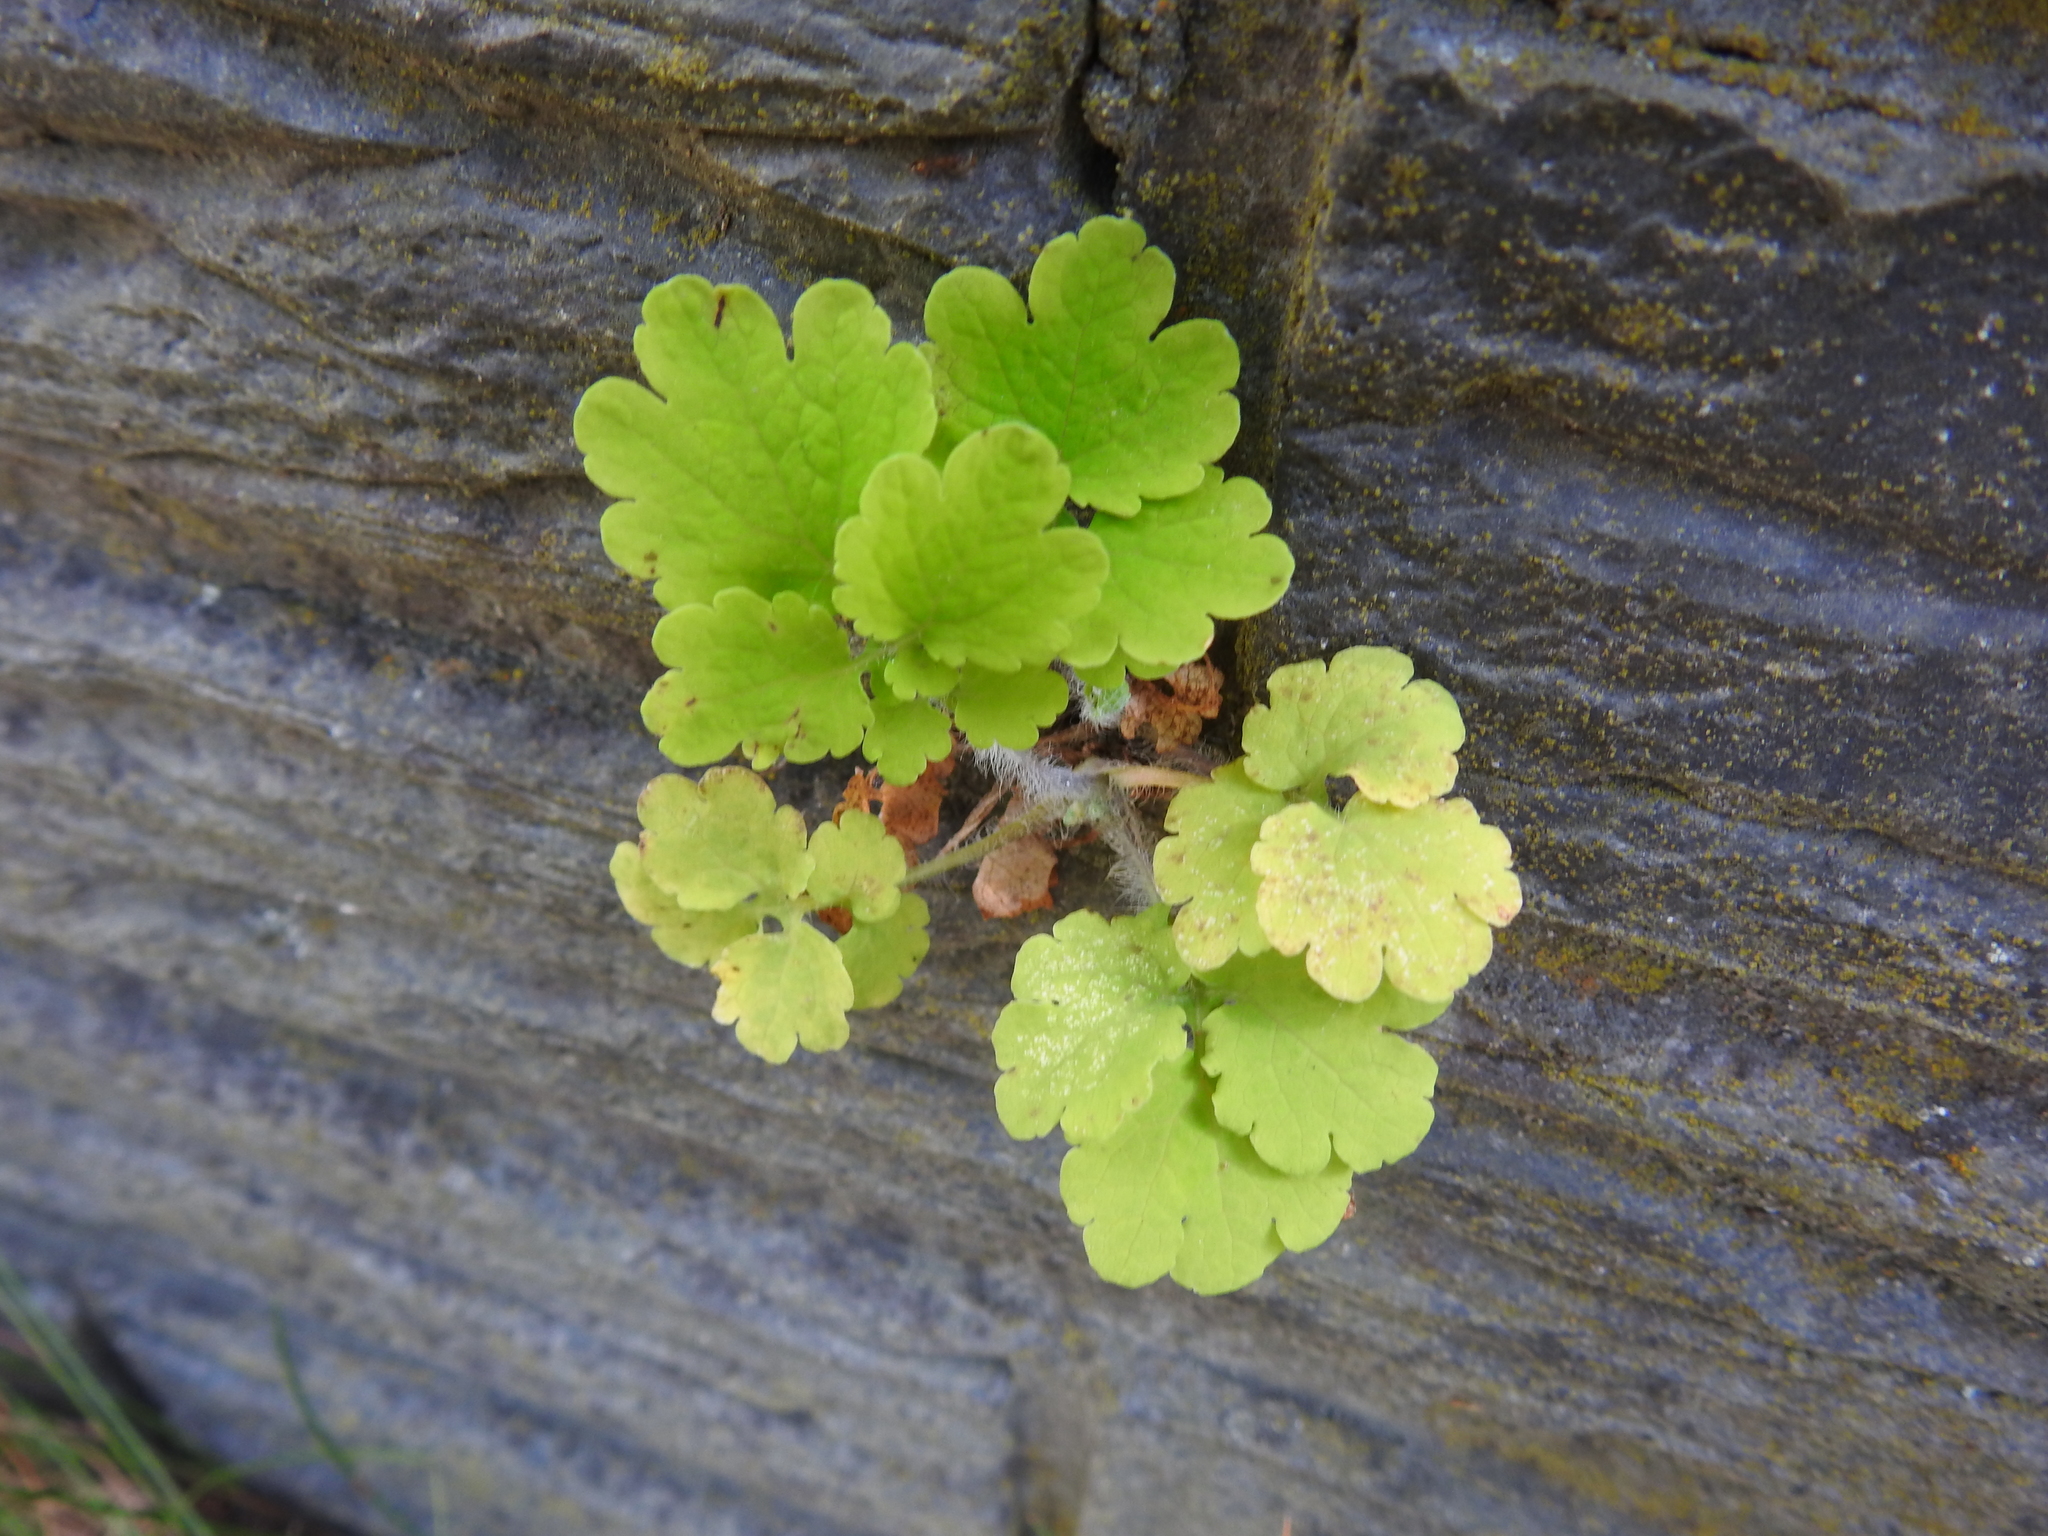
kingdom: Plantae
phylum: Tracheophyta
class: Magnoliopsida
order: Ranunculales
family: Papaveraceae
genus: Chelidonium
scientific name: Chelidonium majus
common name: Greater celandine
